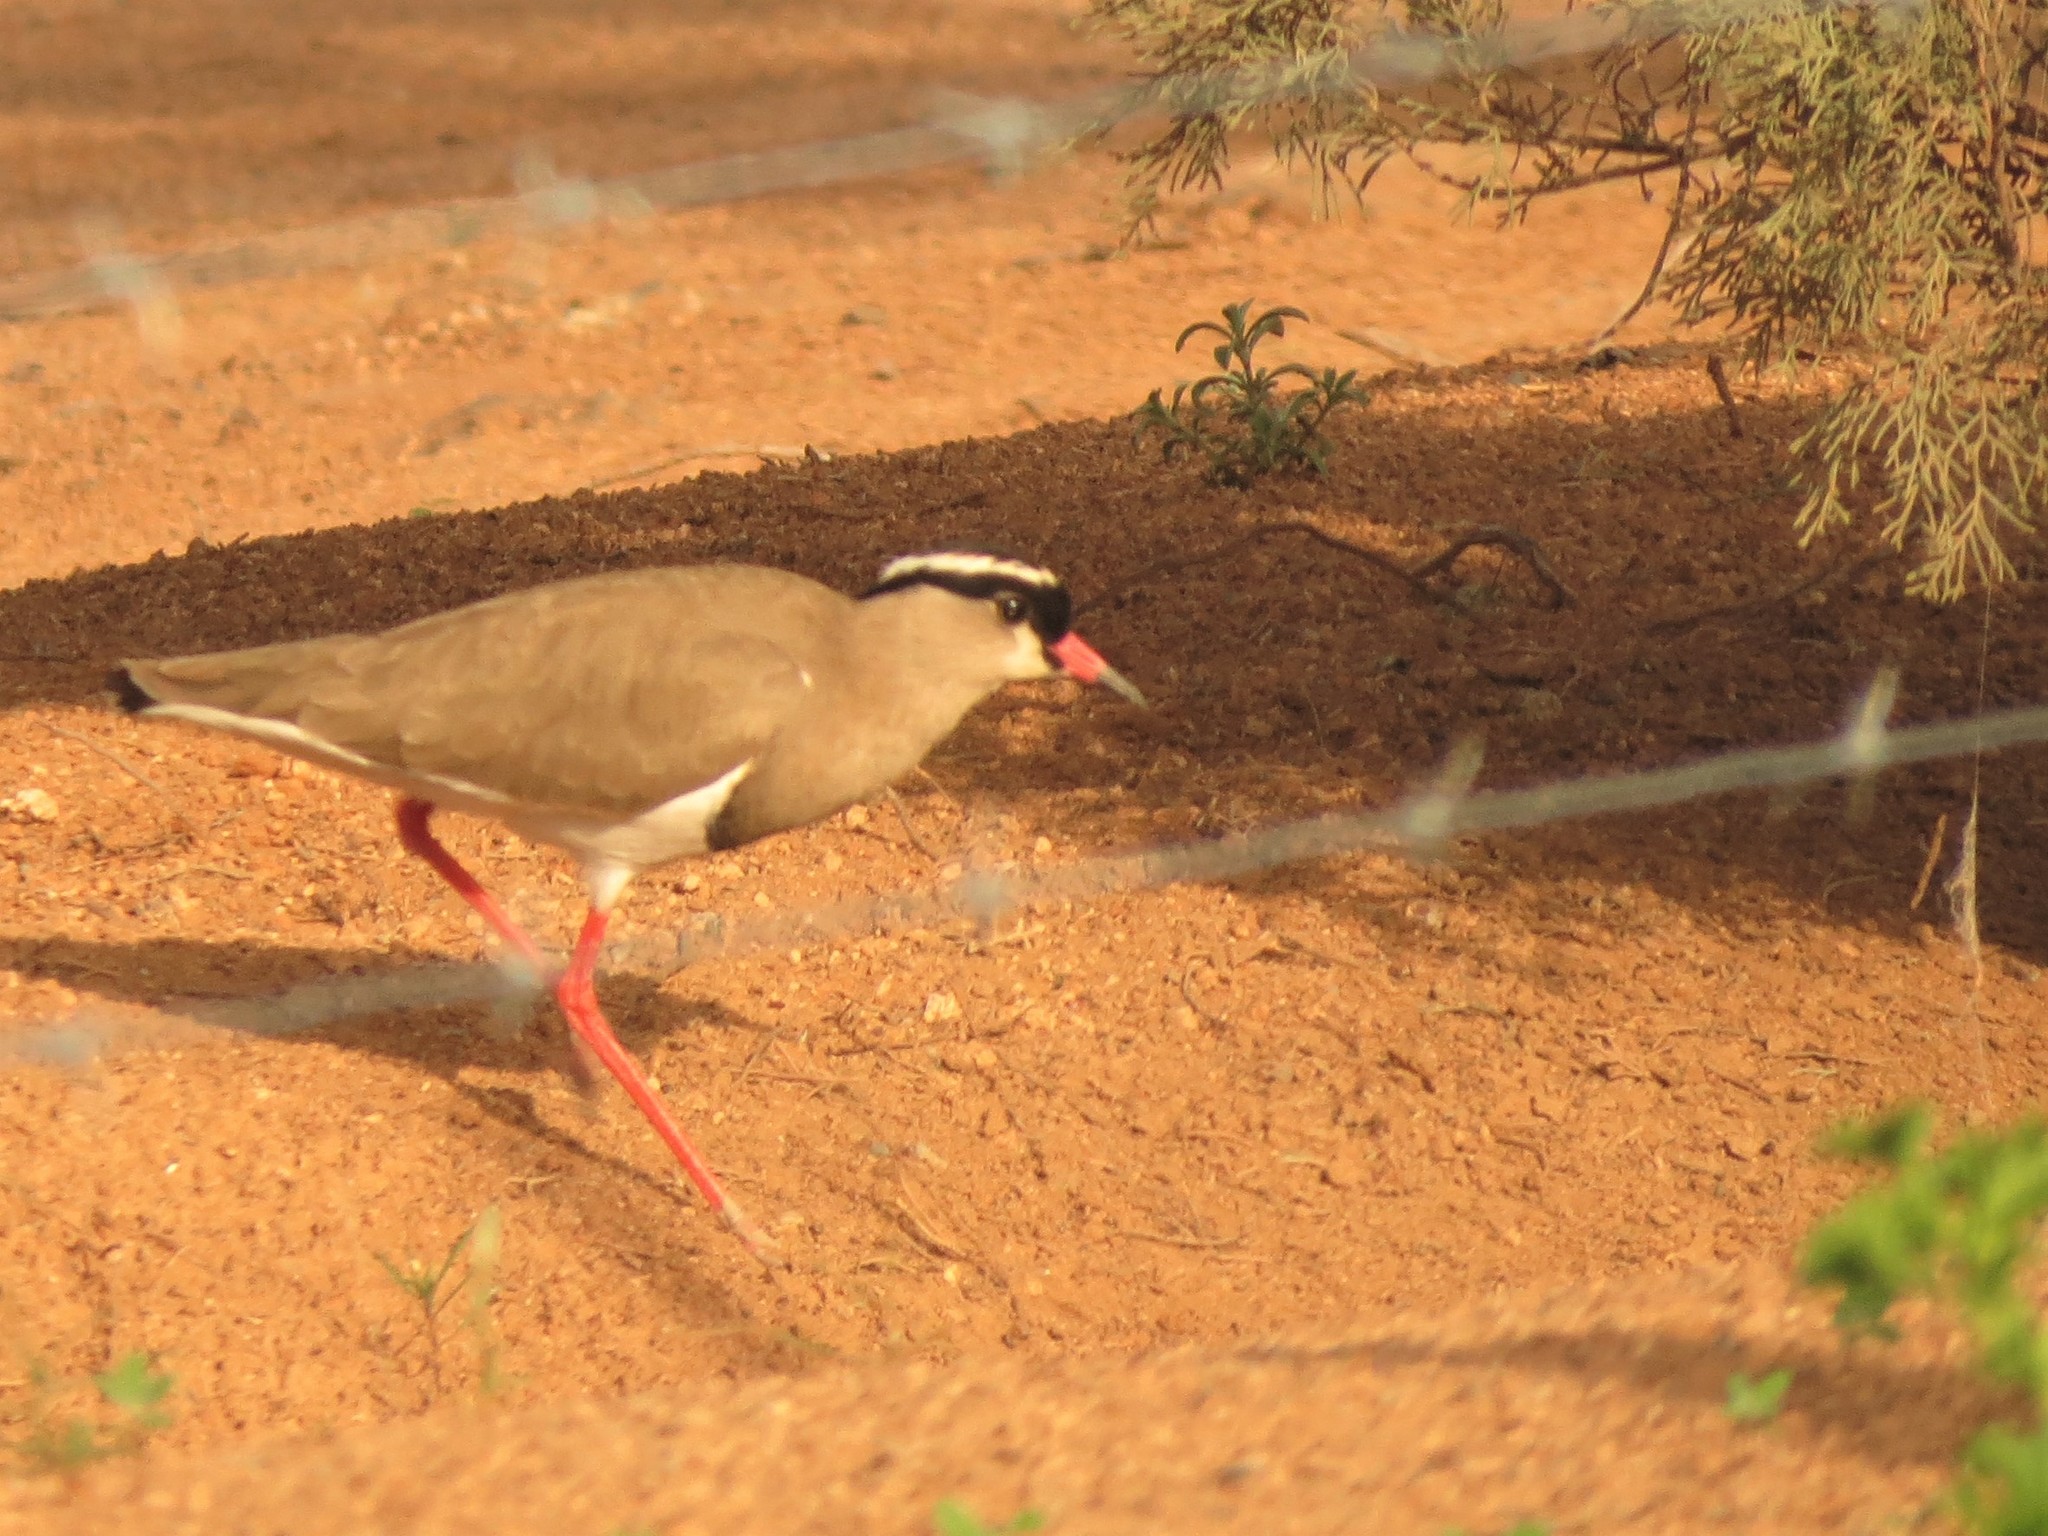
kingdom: Animalia
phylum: Chordata
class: Aves
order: Charadriiformes
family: Charadriidae
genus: Vanellus
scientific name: Vanellus coronatus
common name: Crowned lapwing
